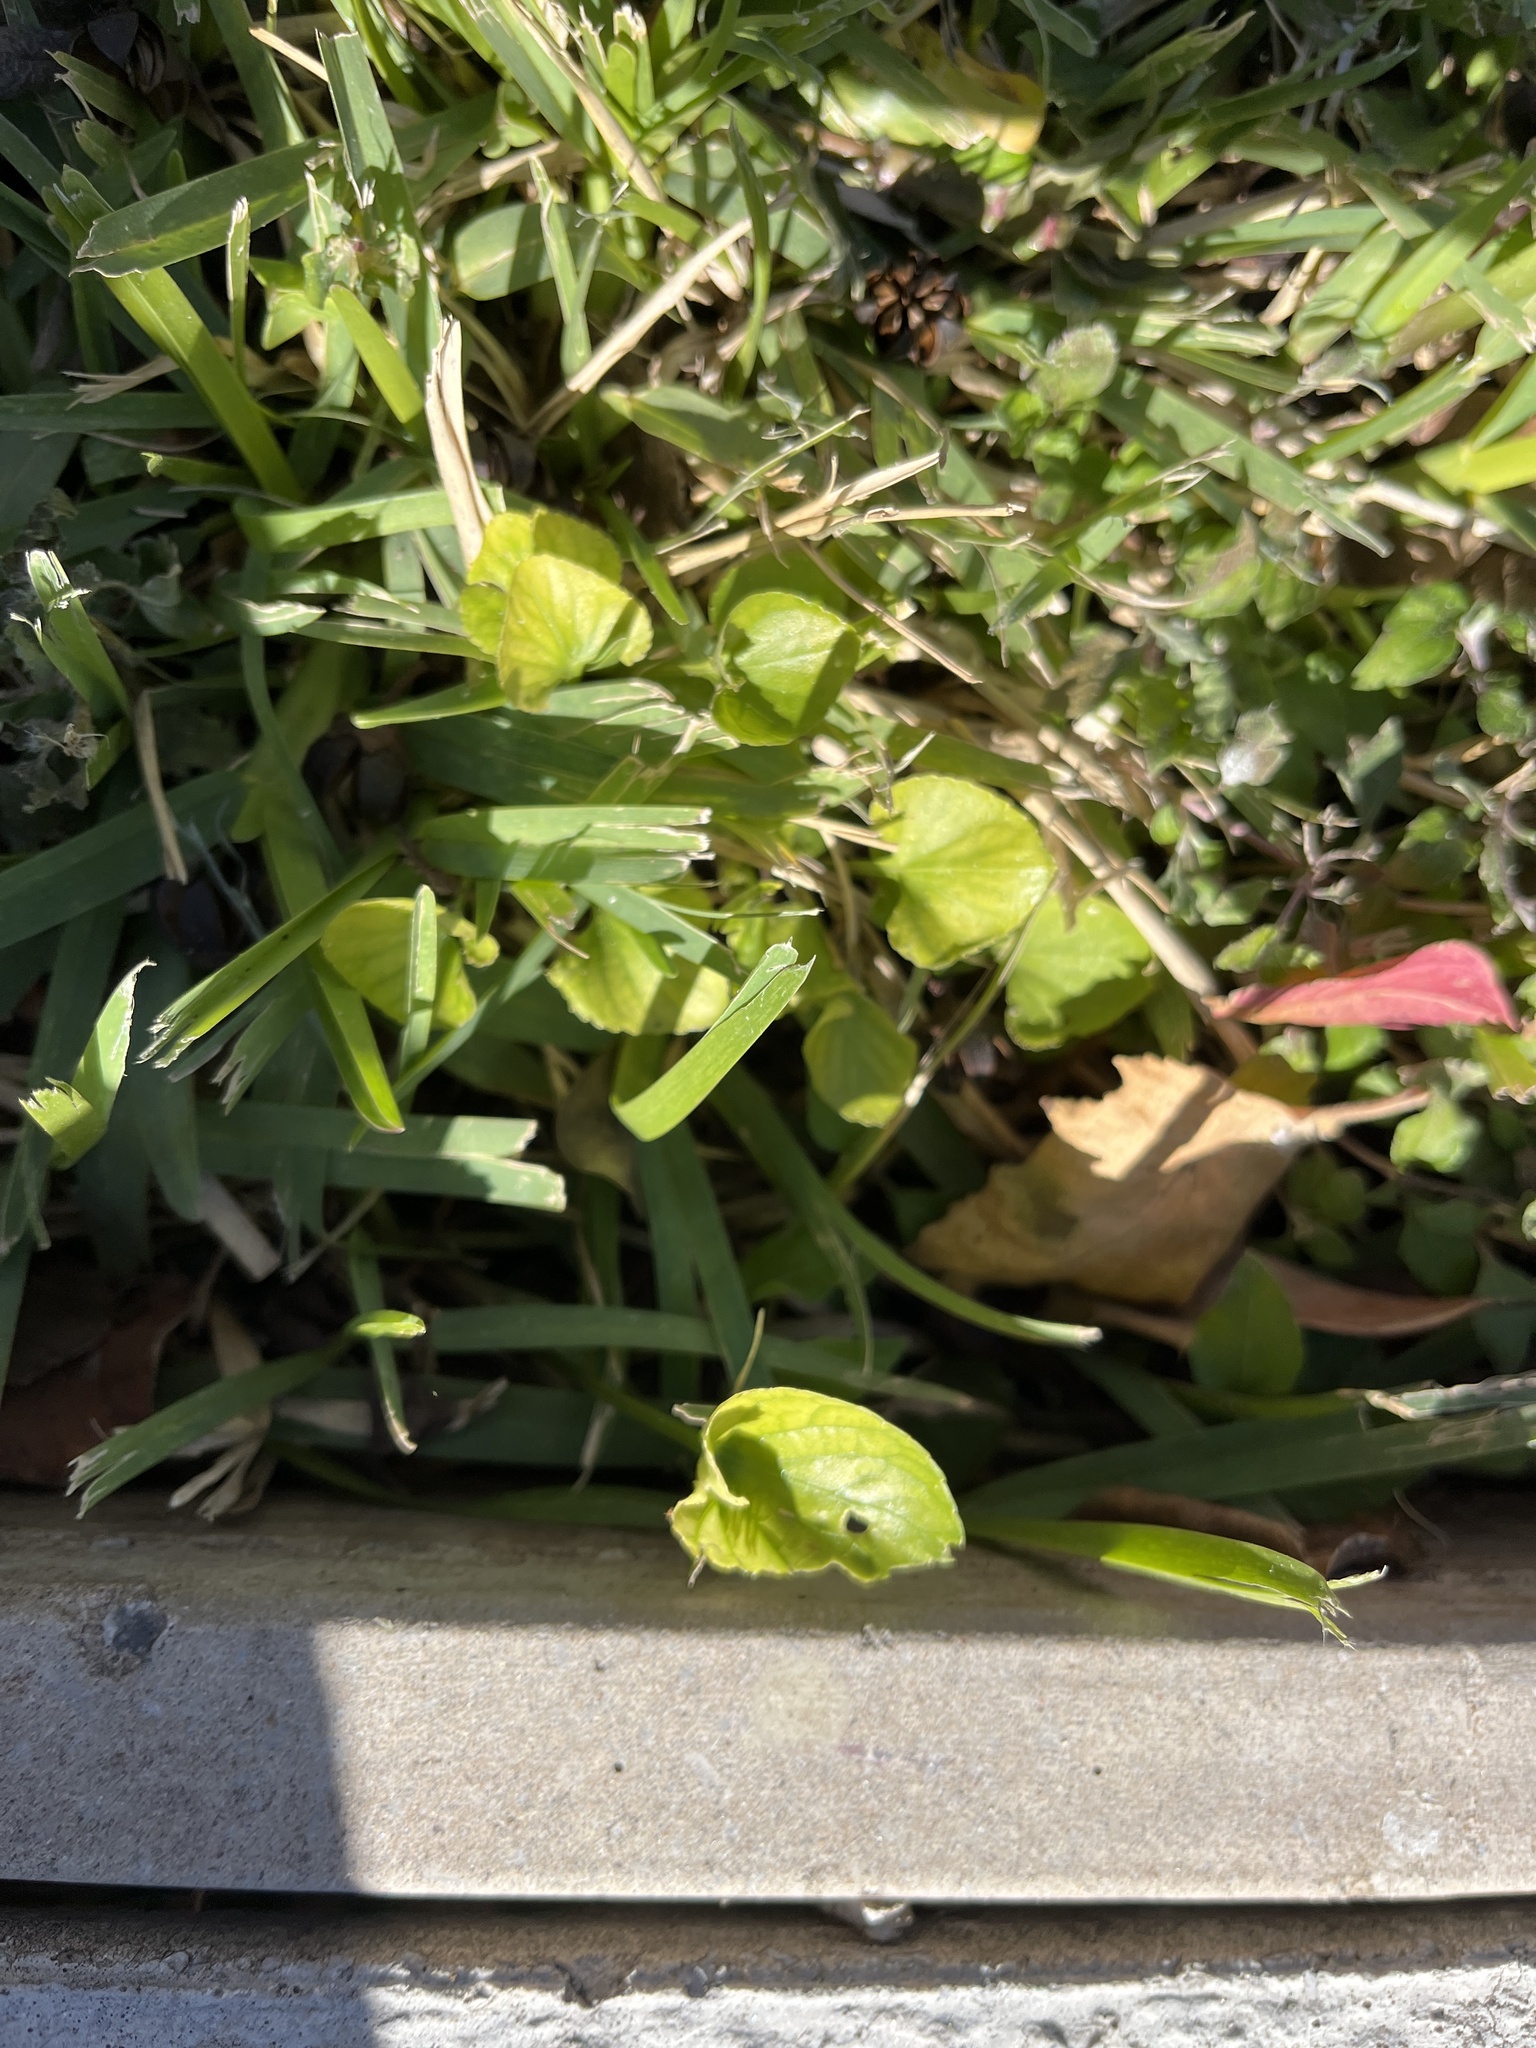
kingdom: Plantae
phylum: Tracheophyta
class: Magnoliopsida
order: Asterales
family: Asteraceae
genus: Calyptocarpus
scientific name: Calyptocarpus vialis
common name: Straggler daisy
